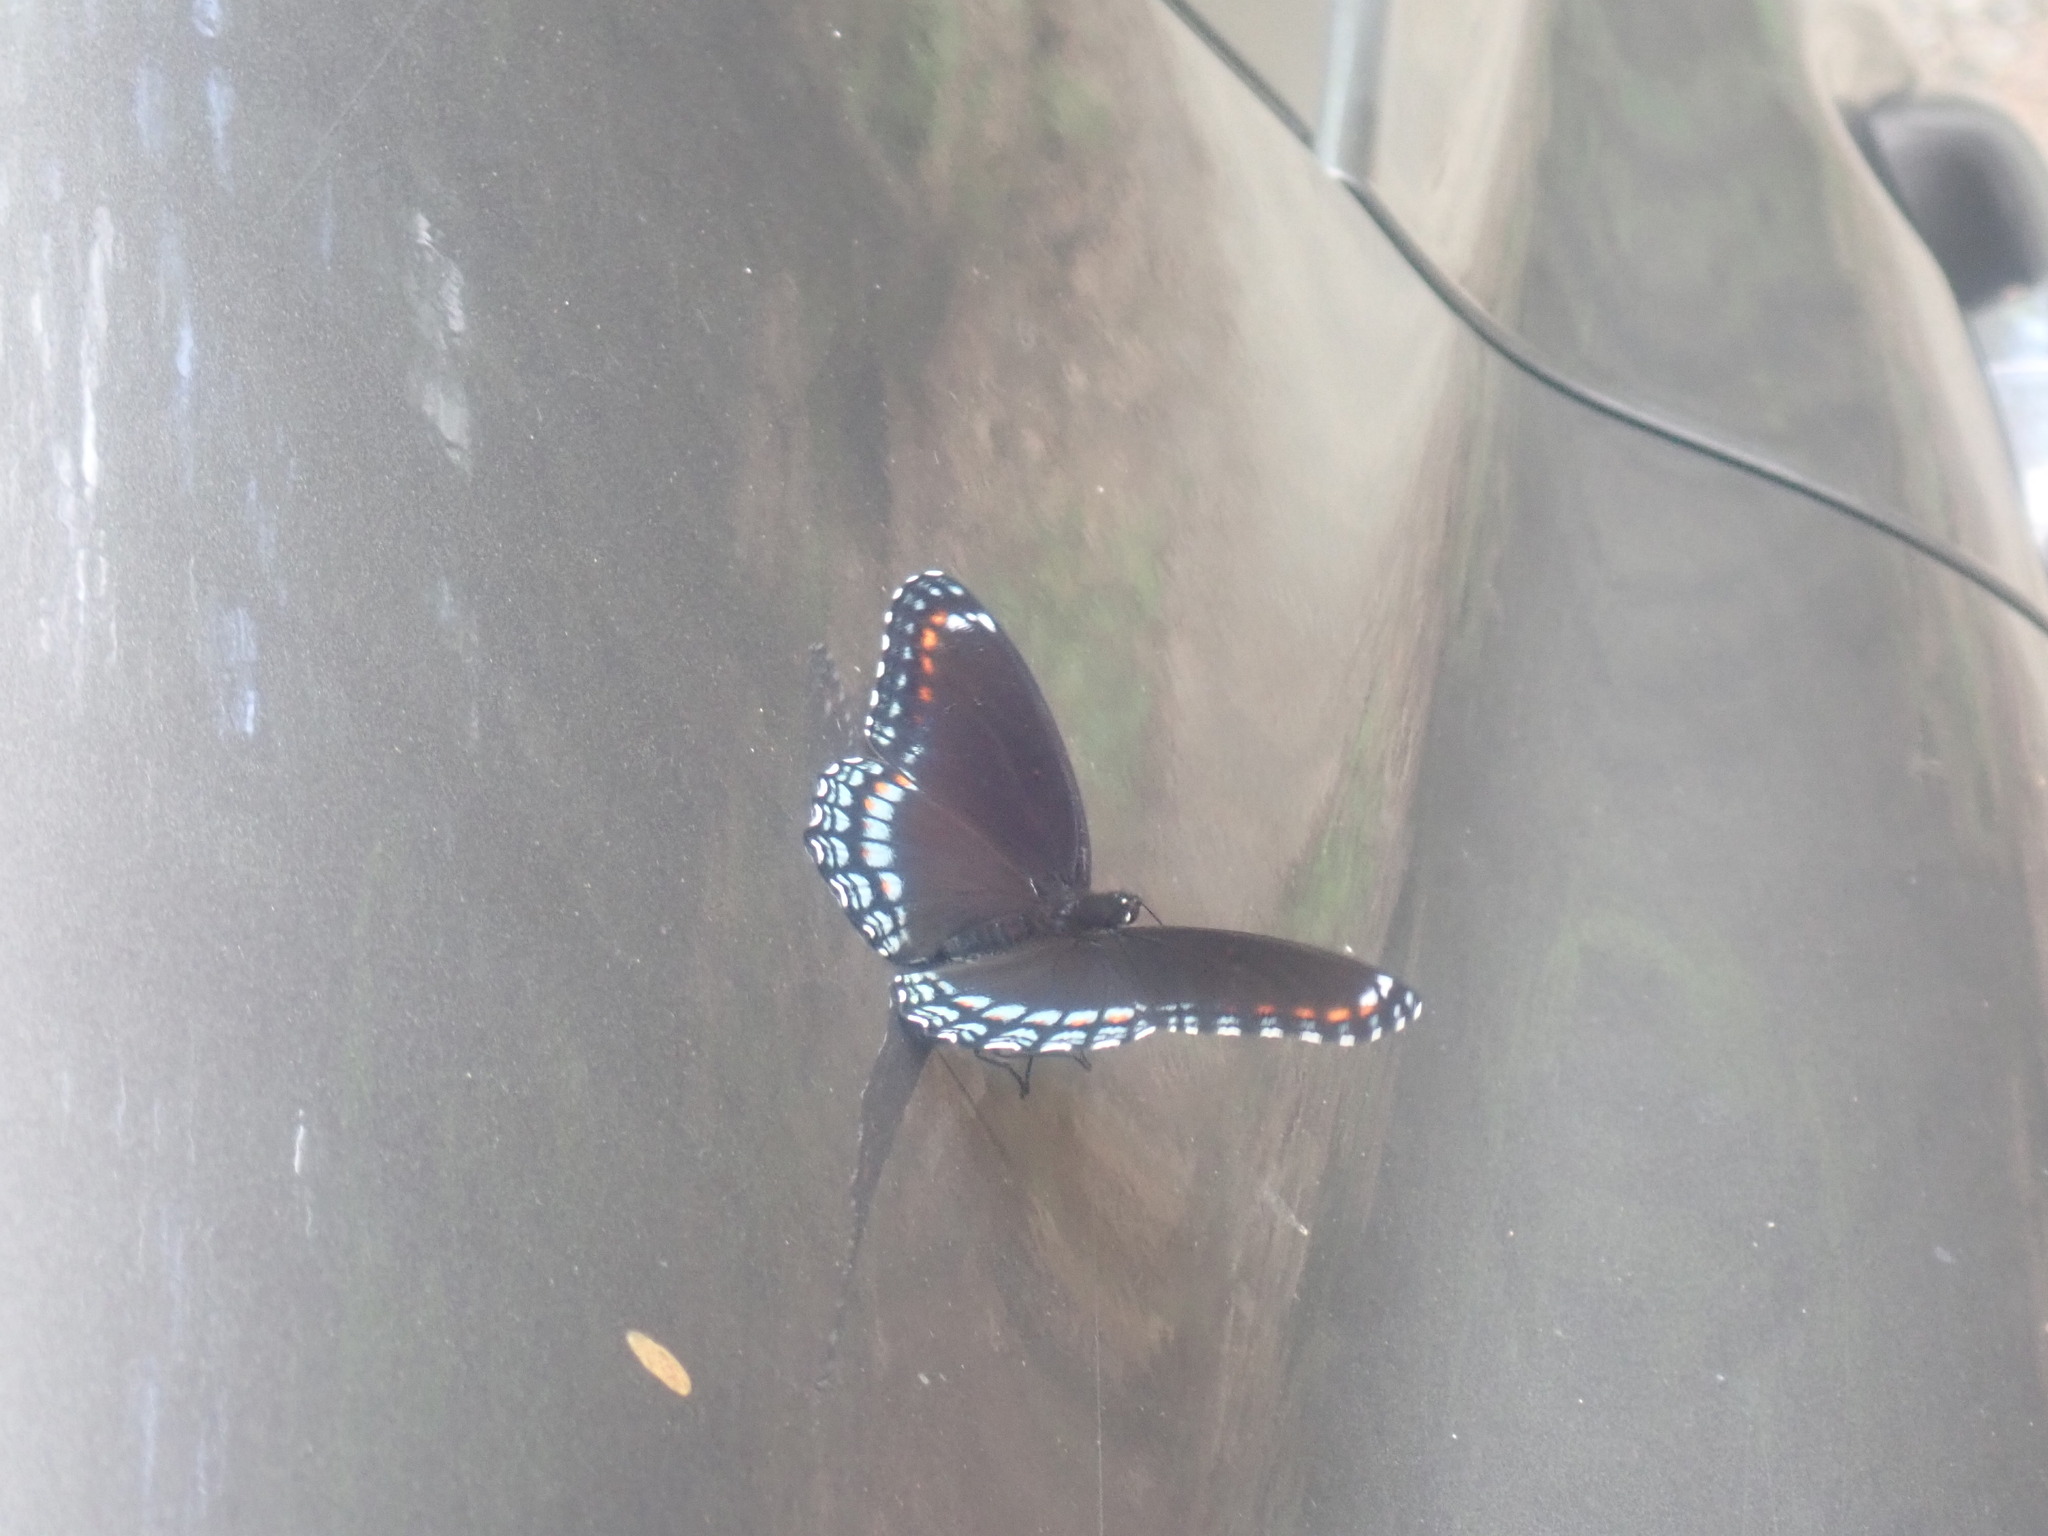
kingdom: Animalia
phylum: Arthropoda
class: Insecta
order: Lepidoptera
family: Nymphalidae
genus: Limenitis
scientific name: Limenitis arthemis
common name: Red-spotted admiral
